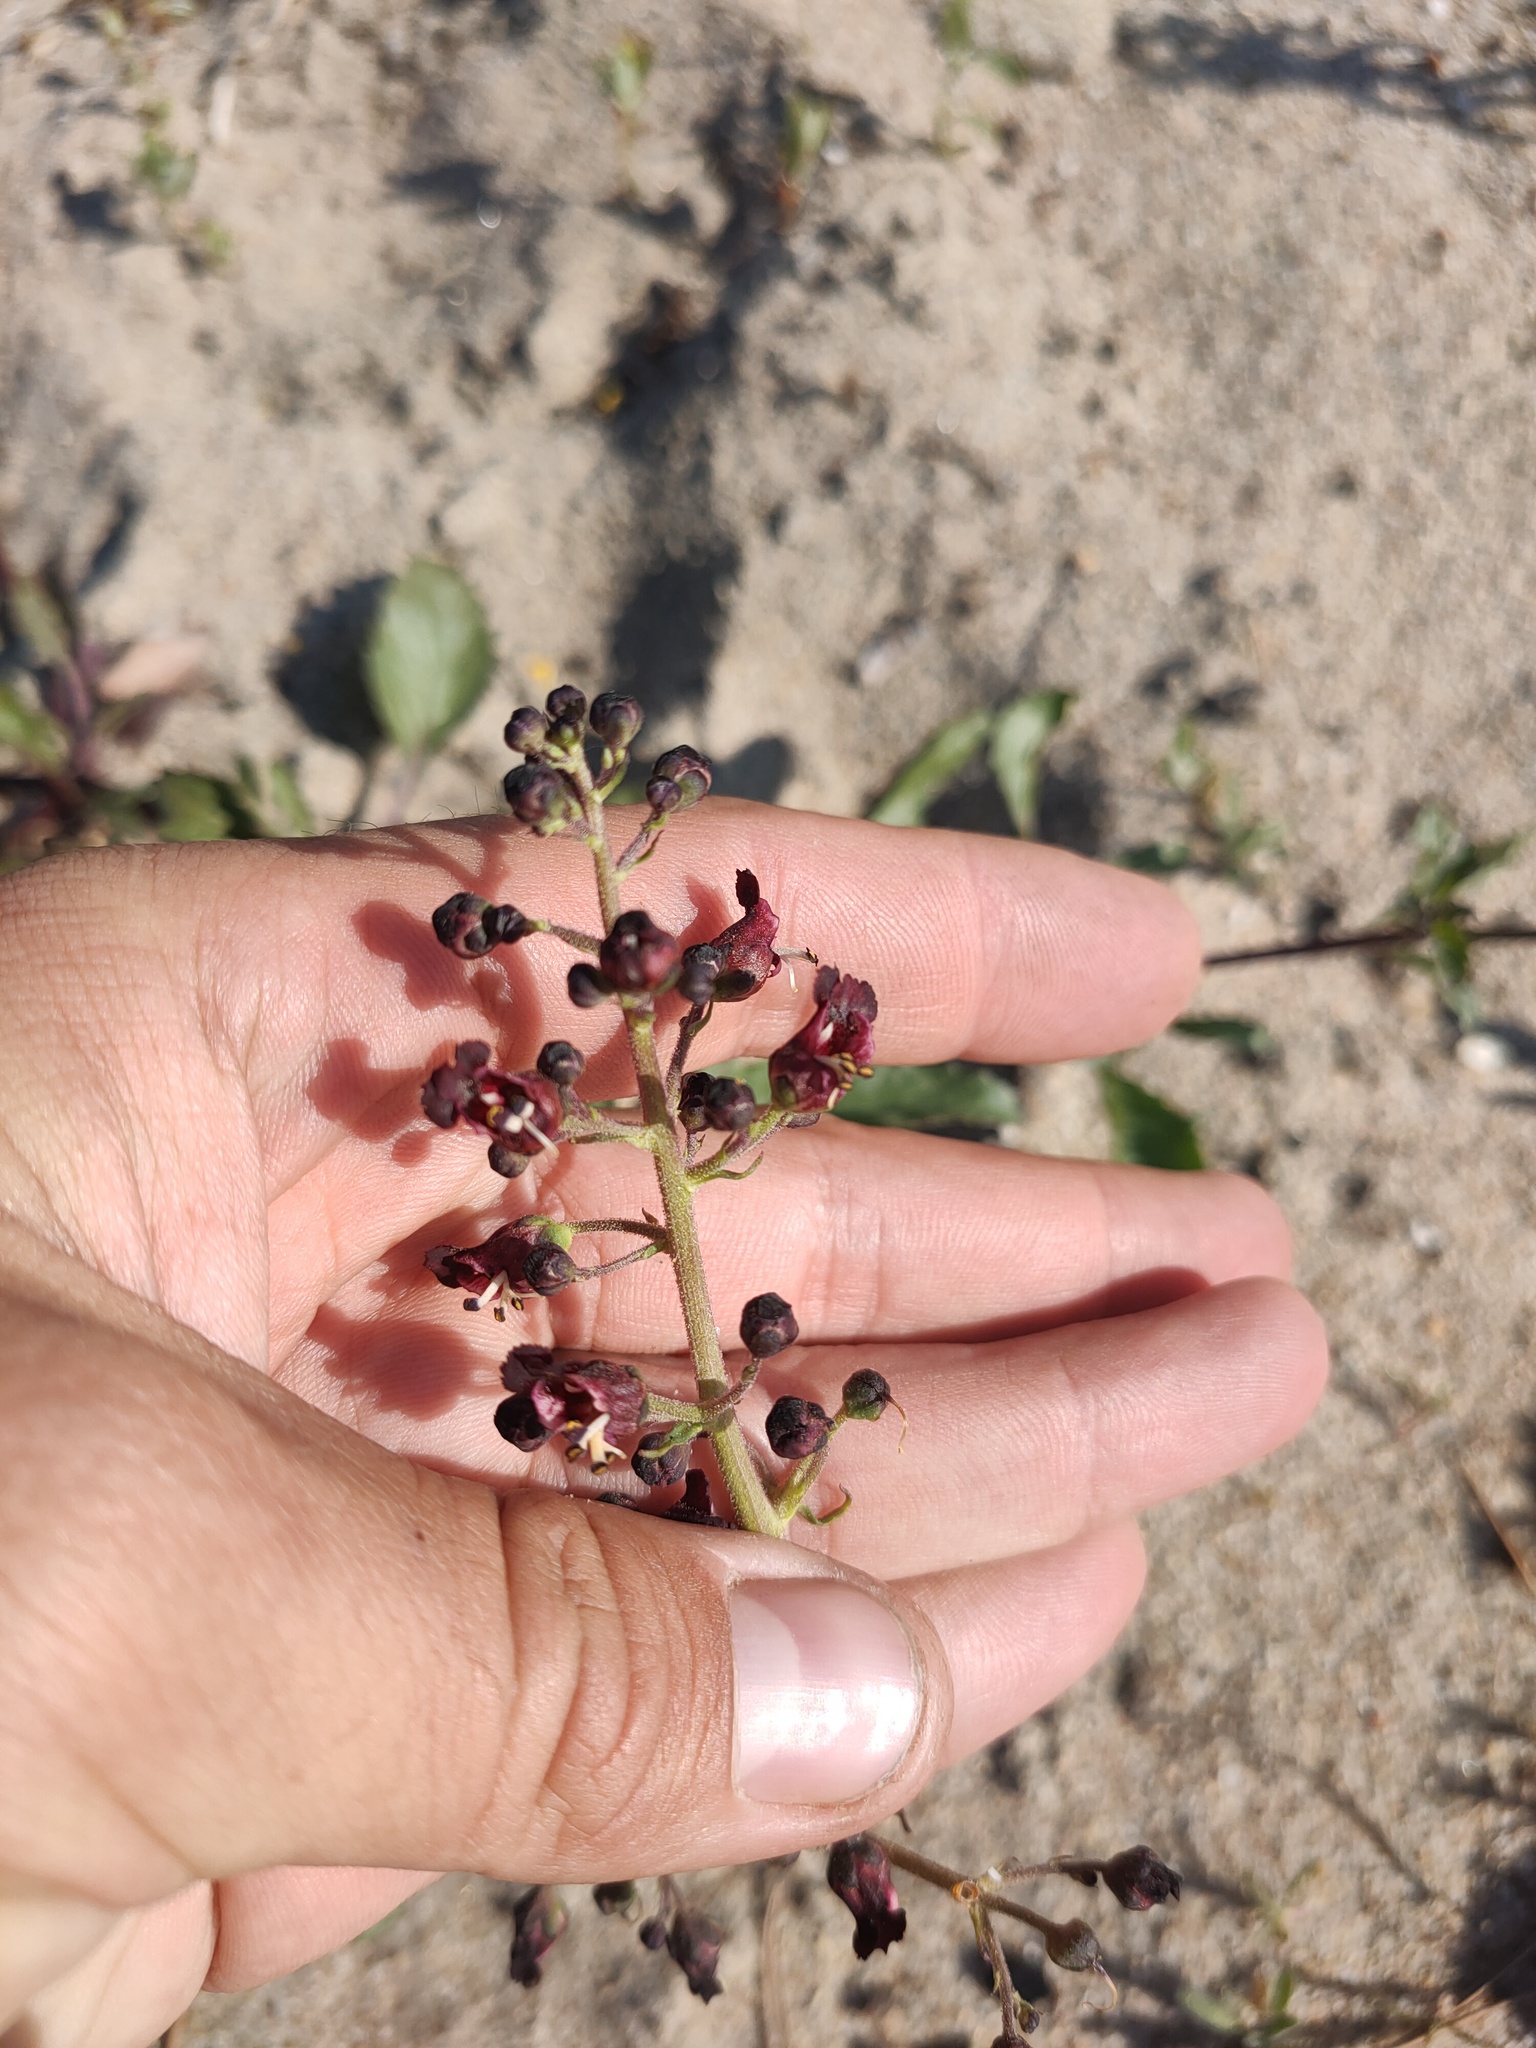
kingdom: Plantae
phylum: Tracheophyta
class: Magnoliopsida
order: Lamiales
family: Scrophulariaceae
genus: Scrophularia
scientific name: Scrophularia incisa
